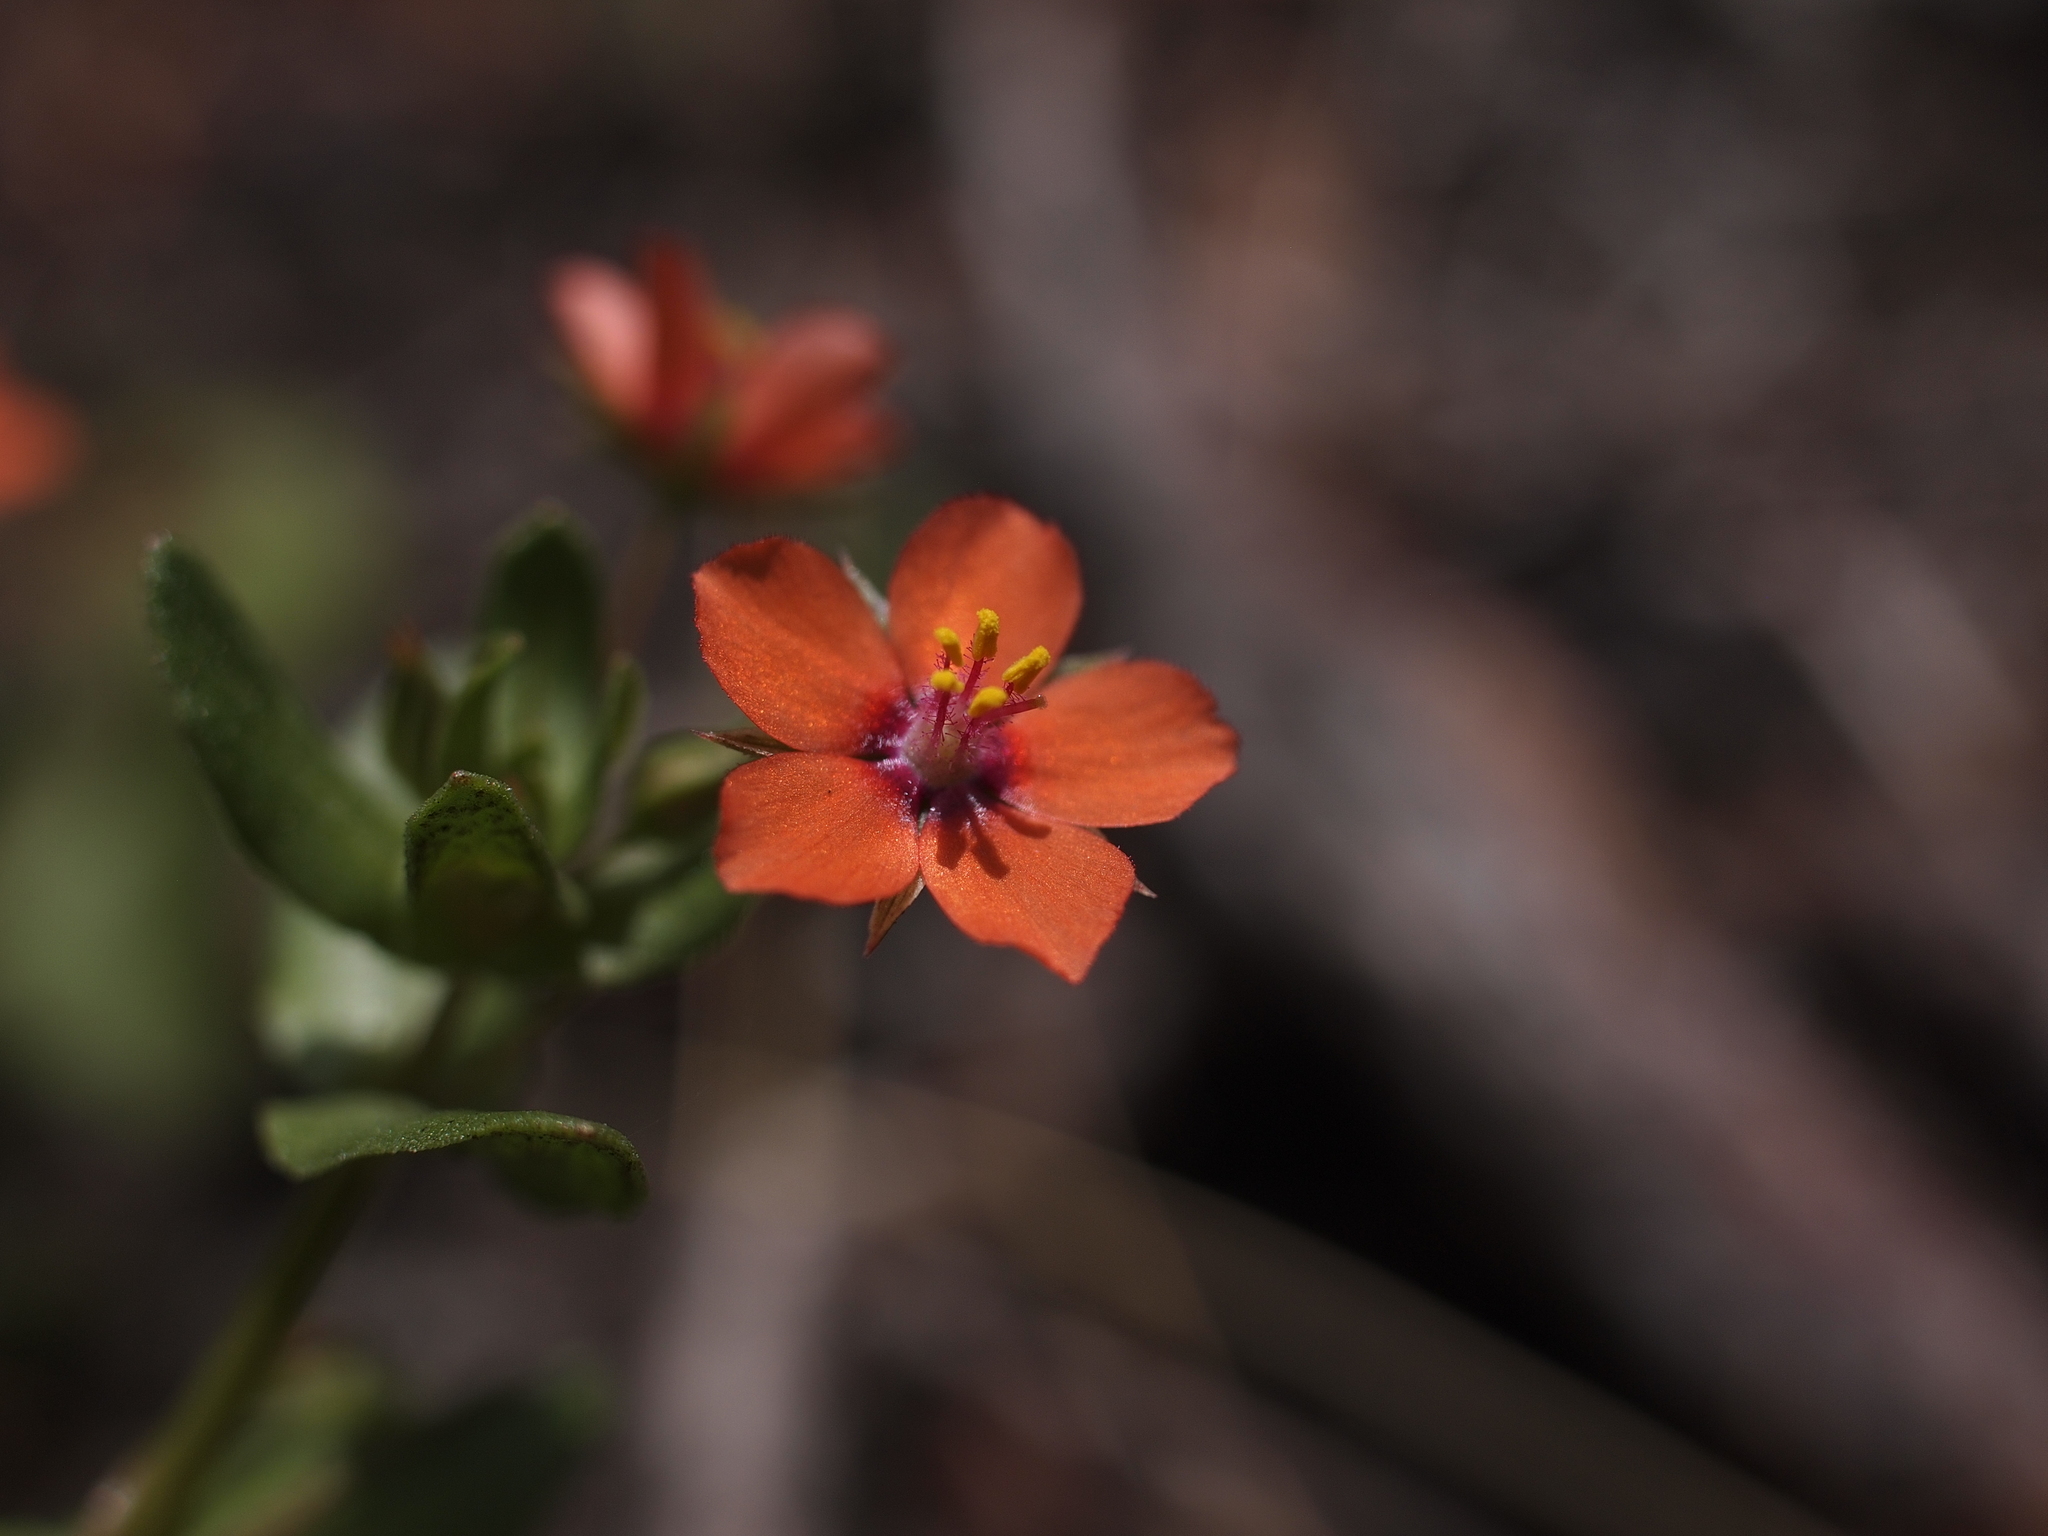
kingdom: Plantae
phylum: Tracheophyta
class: Magnoliopsida
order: Ericales
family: Primulaceae
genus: Lysimachia
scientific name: Lysimachia arvensis
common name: Scarlet pimpernel
